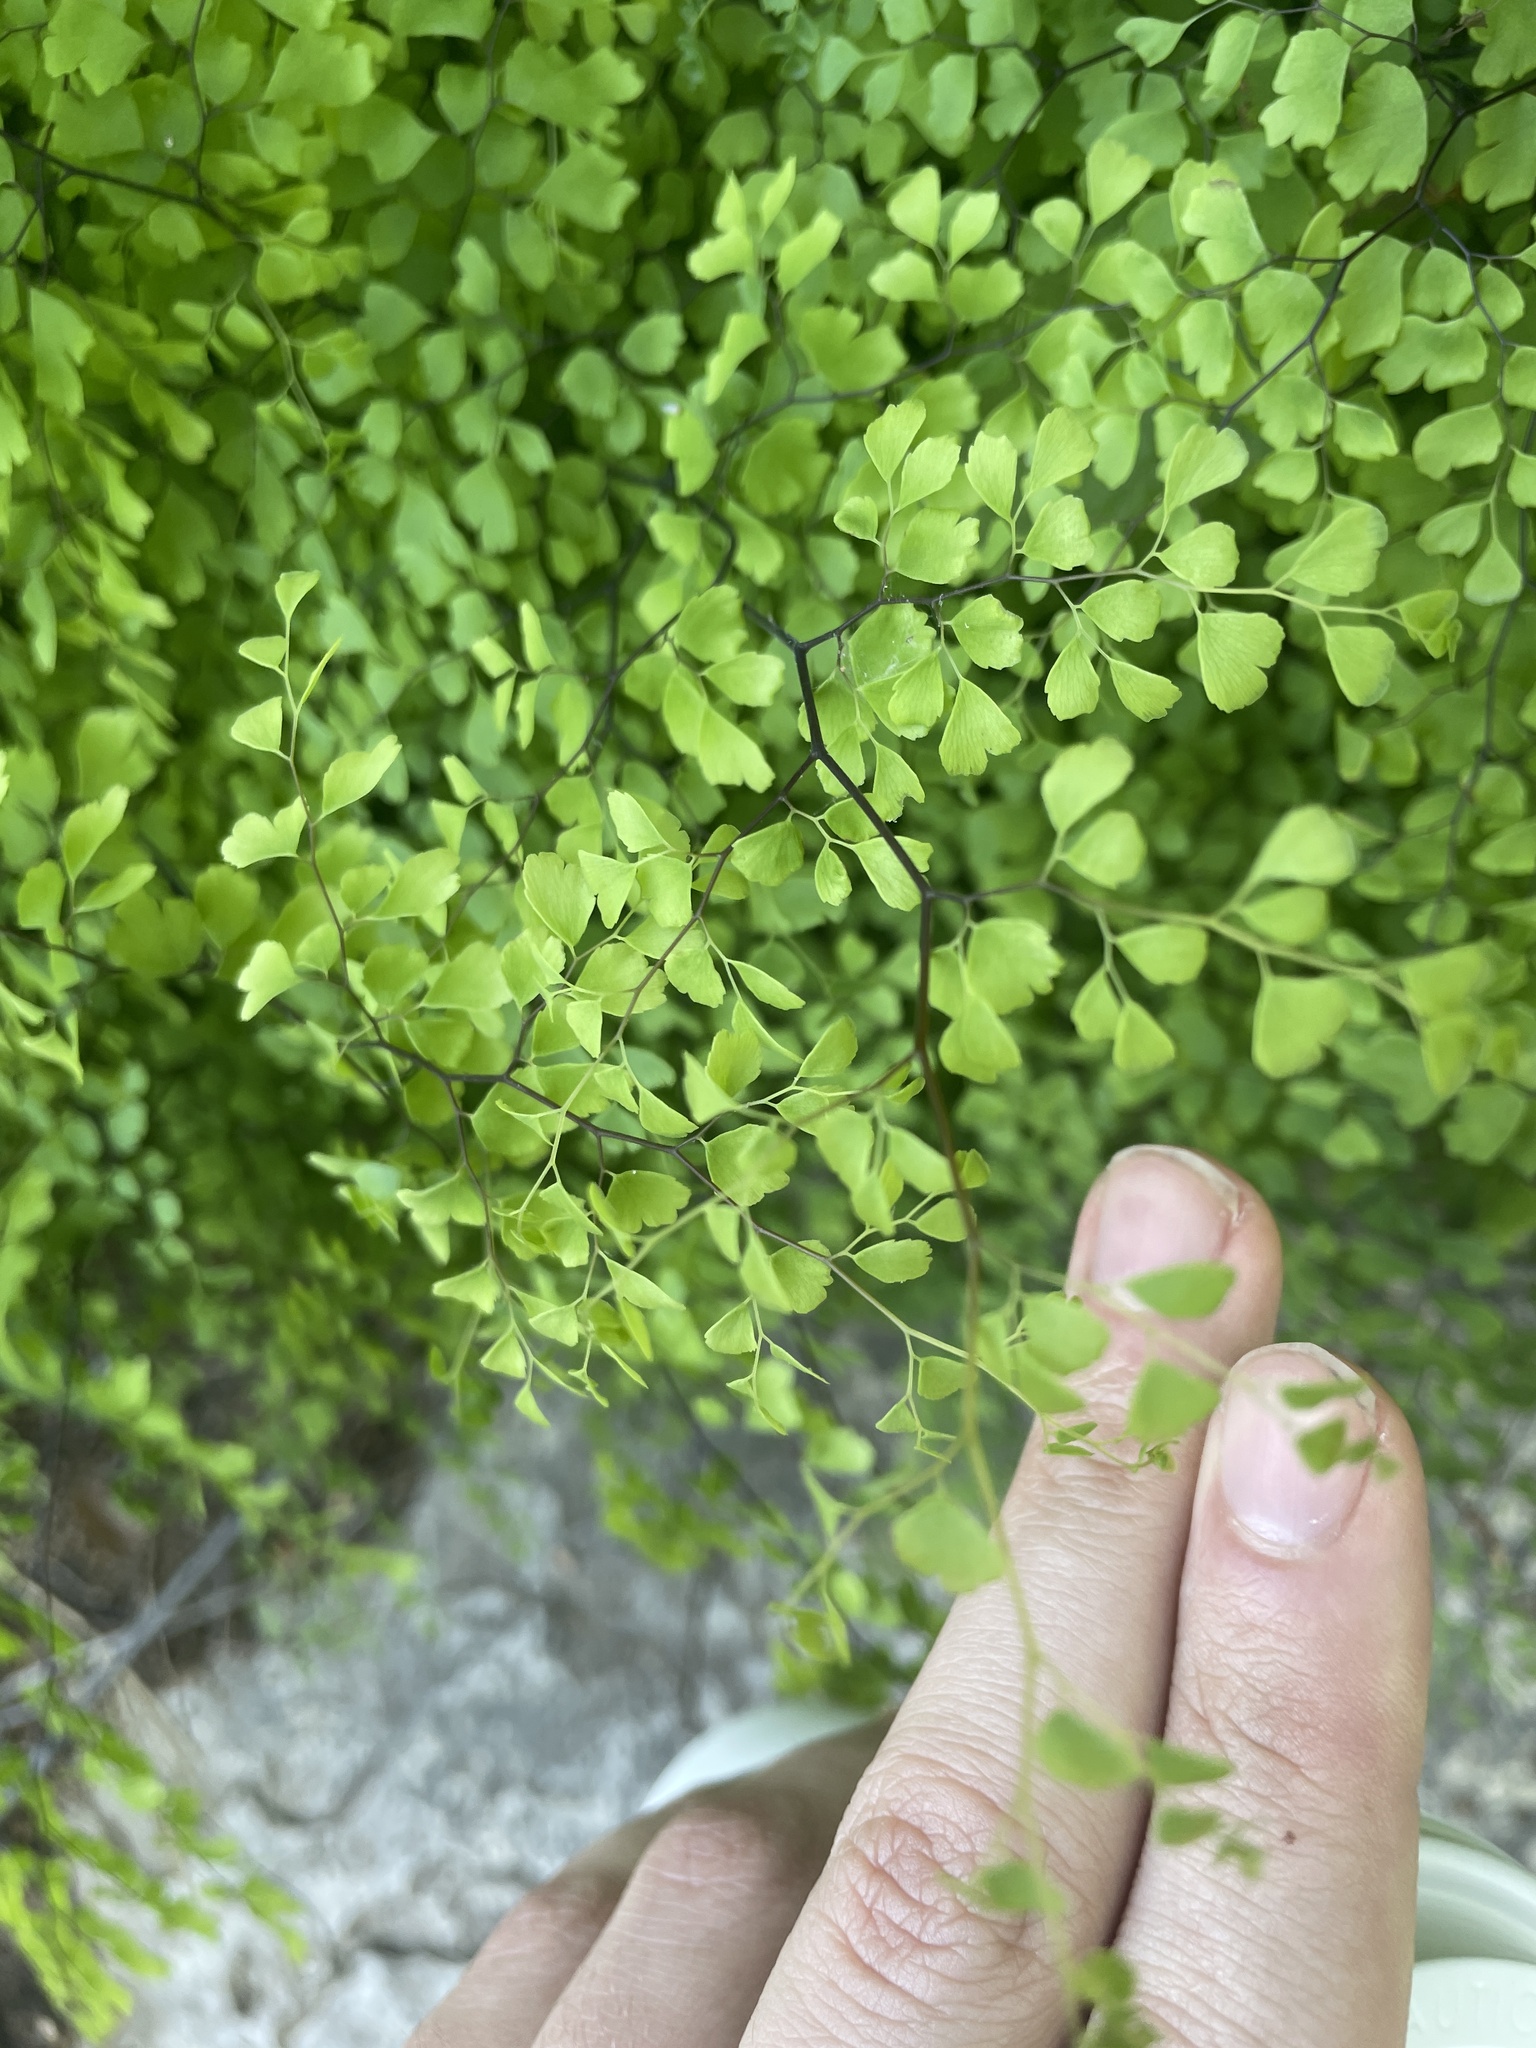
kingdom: Plantae
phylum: Tracheophyta
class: Polypodiopsida
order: Polypodiales
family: Pteridaceae
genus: Adiantum
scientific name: Adiantum capillus-veneris
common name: Maidenhair fern
